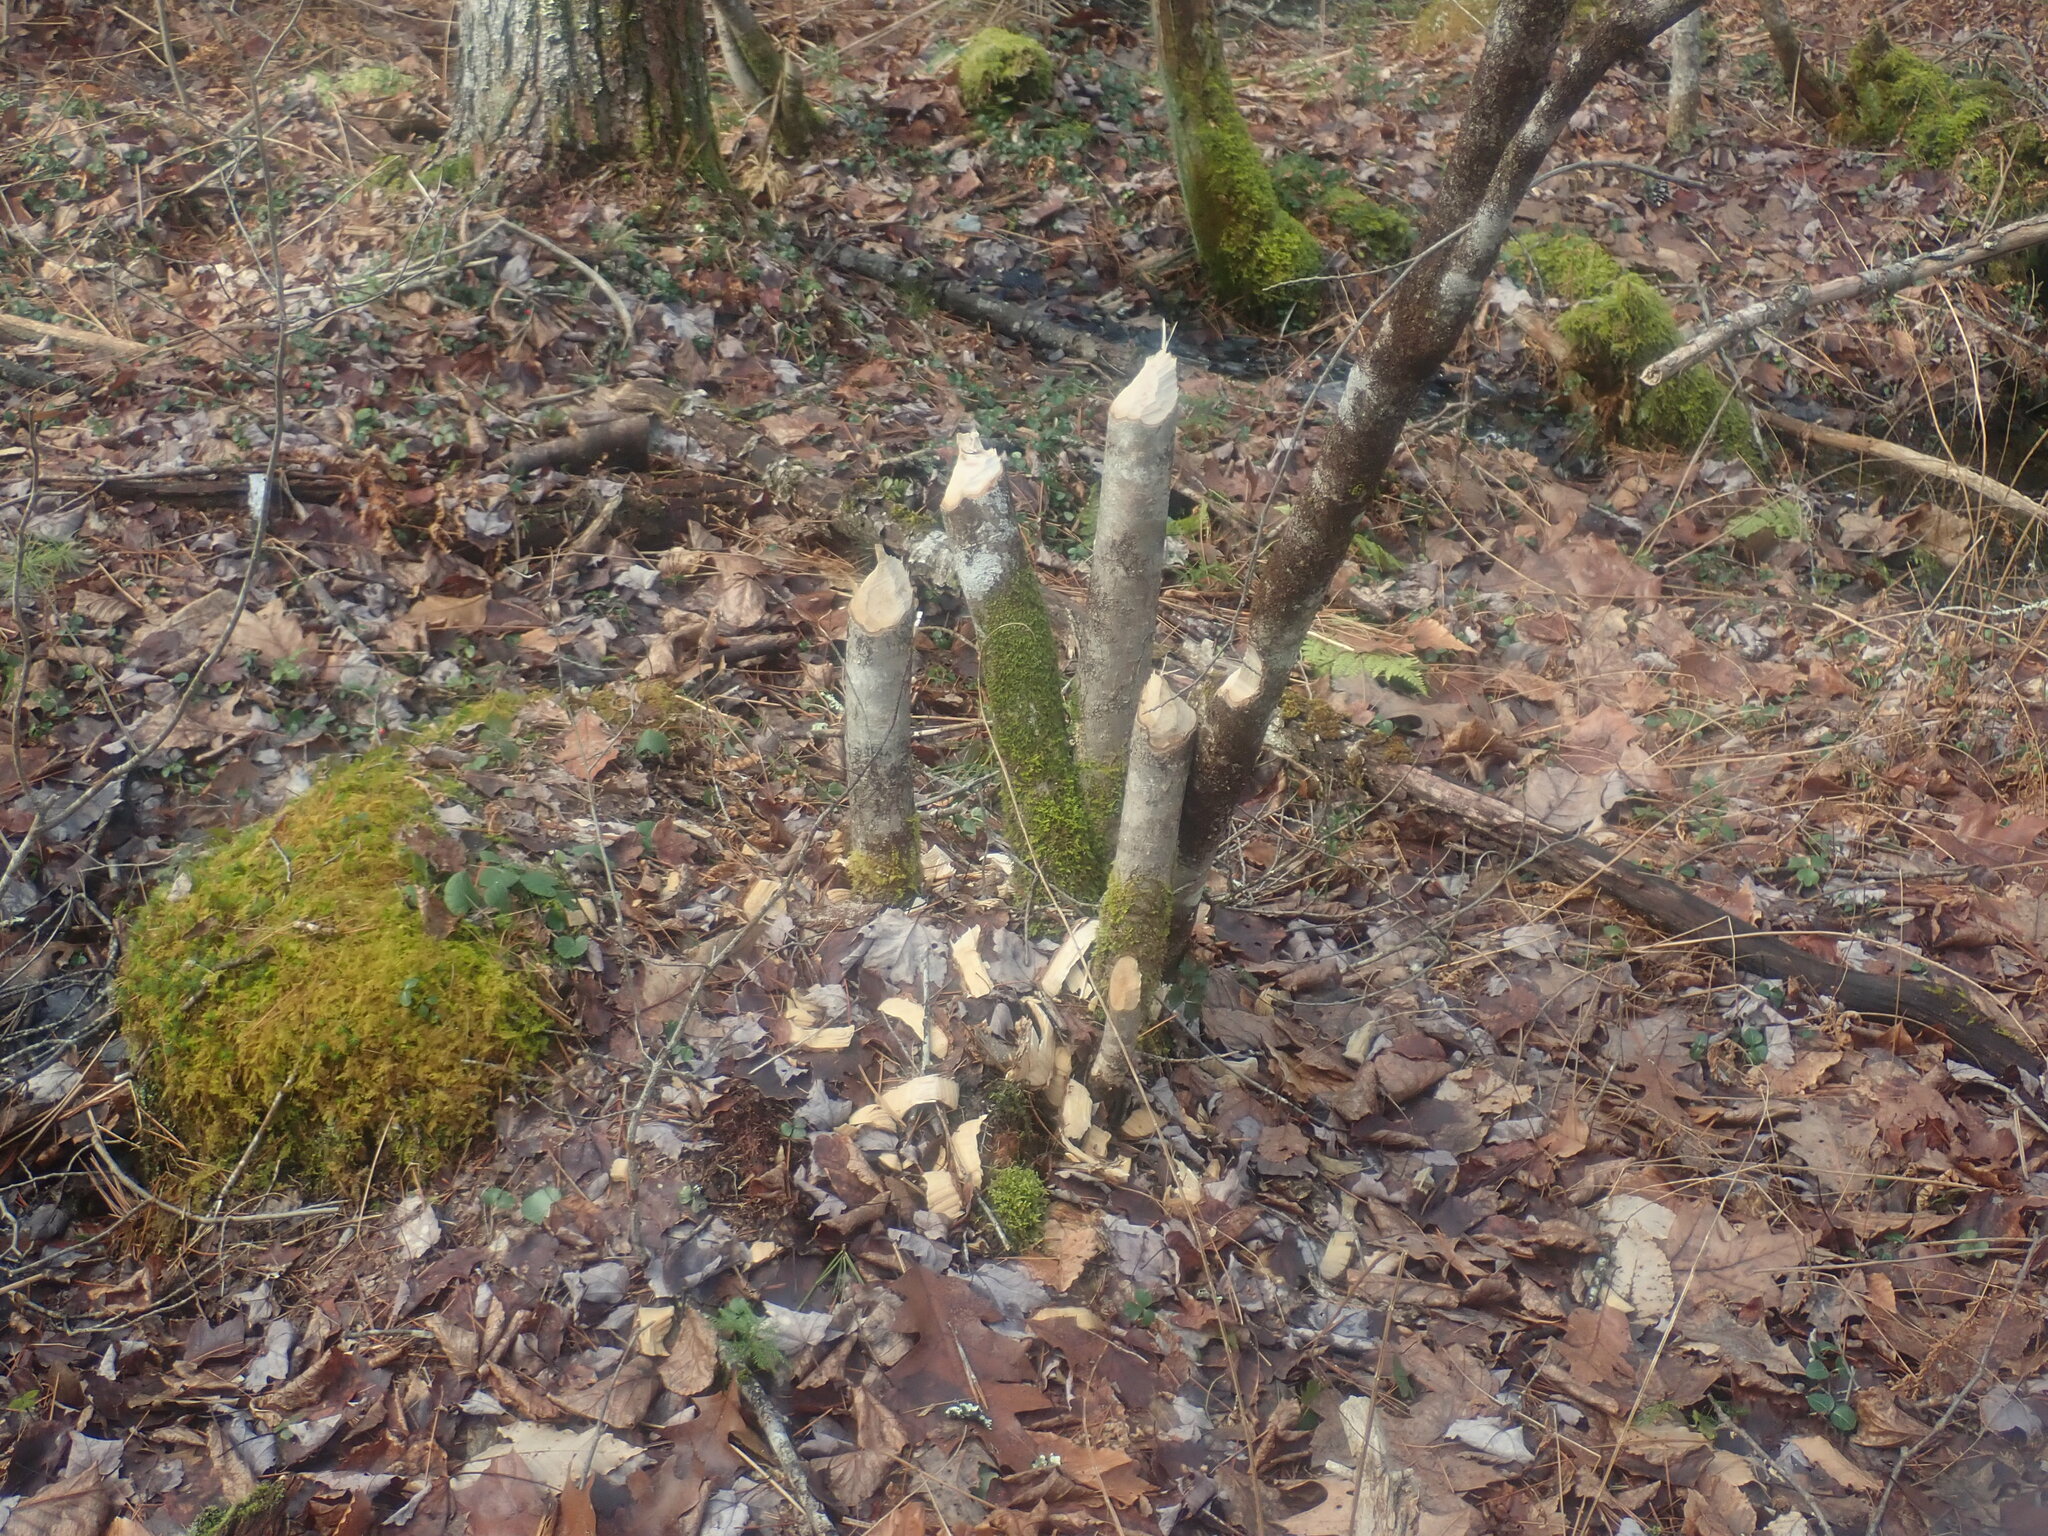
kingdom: Animalia
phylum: Chordata
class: Mammalia
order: Rodentia
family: Castoridae
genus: Castor
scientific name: Castor canadensis
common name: American beaver
